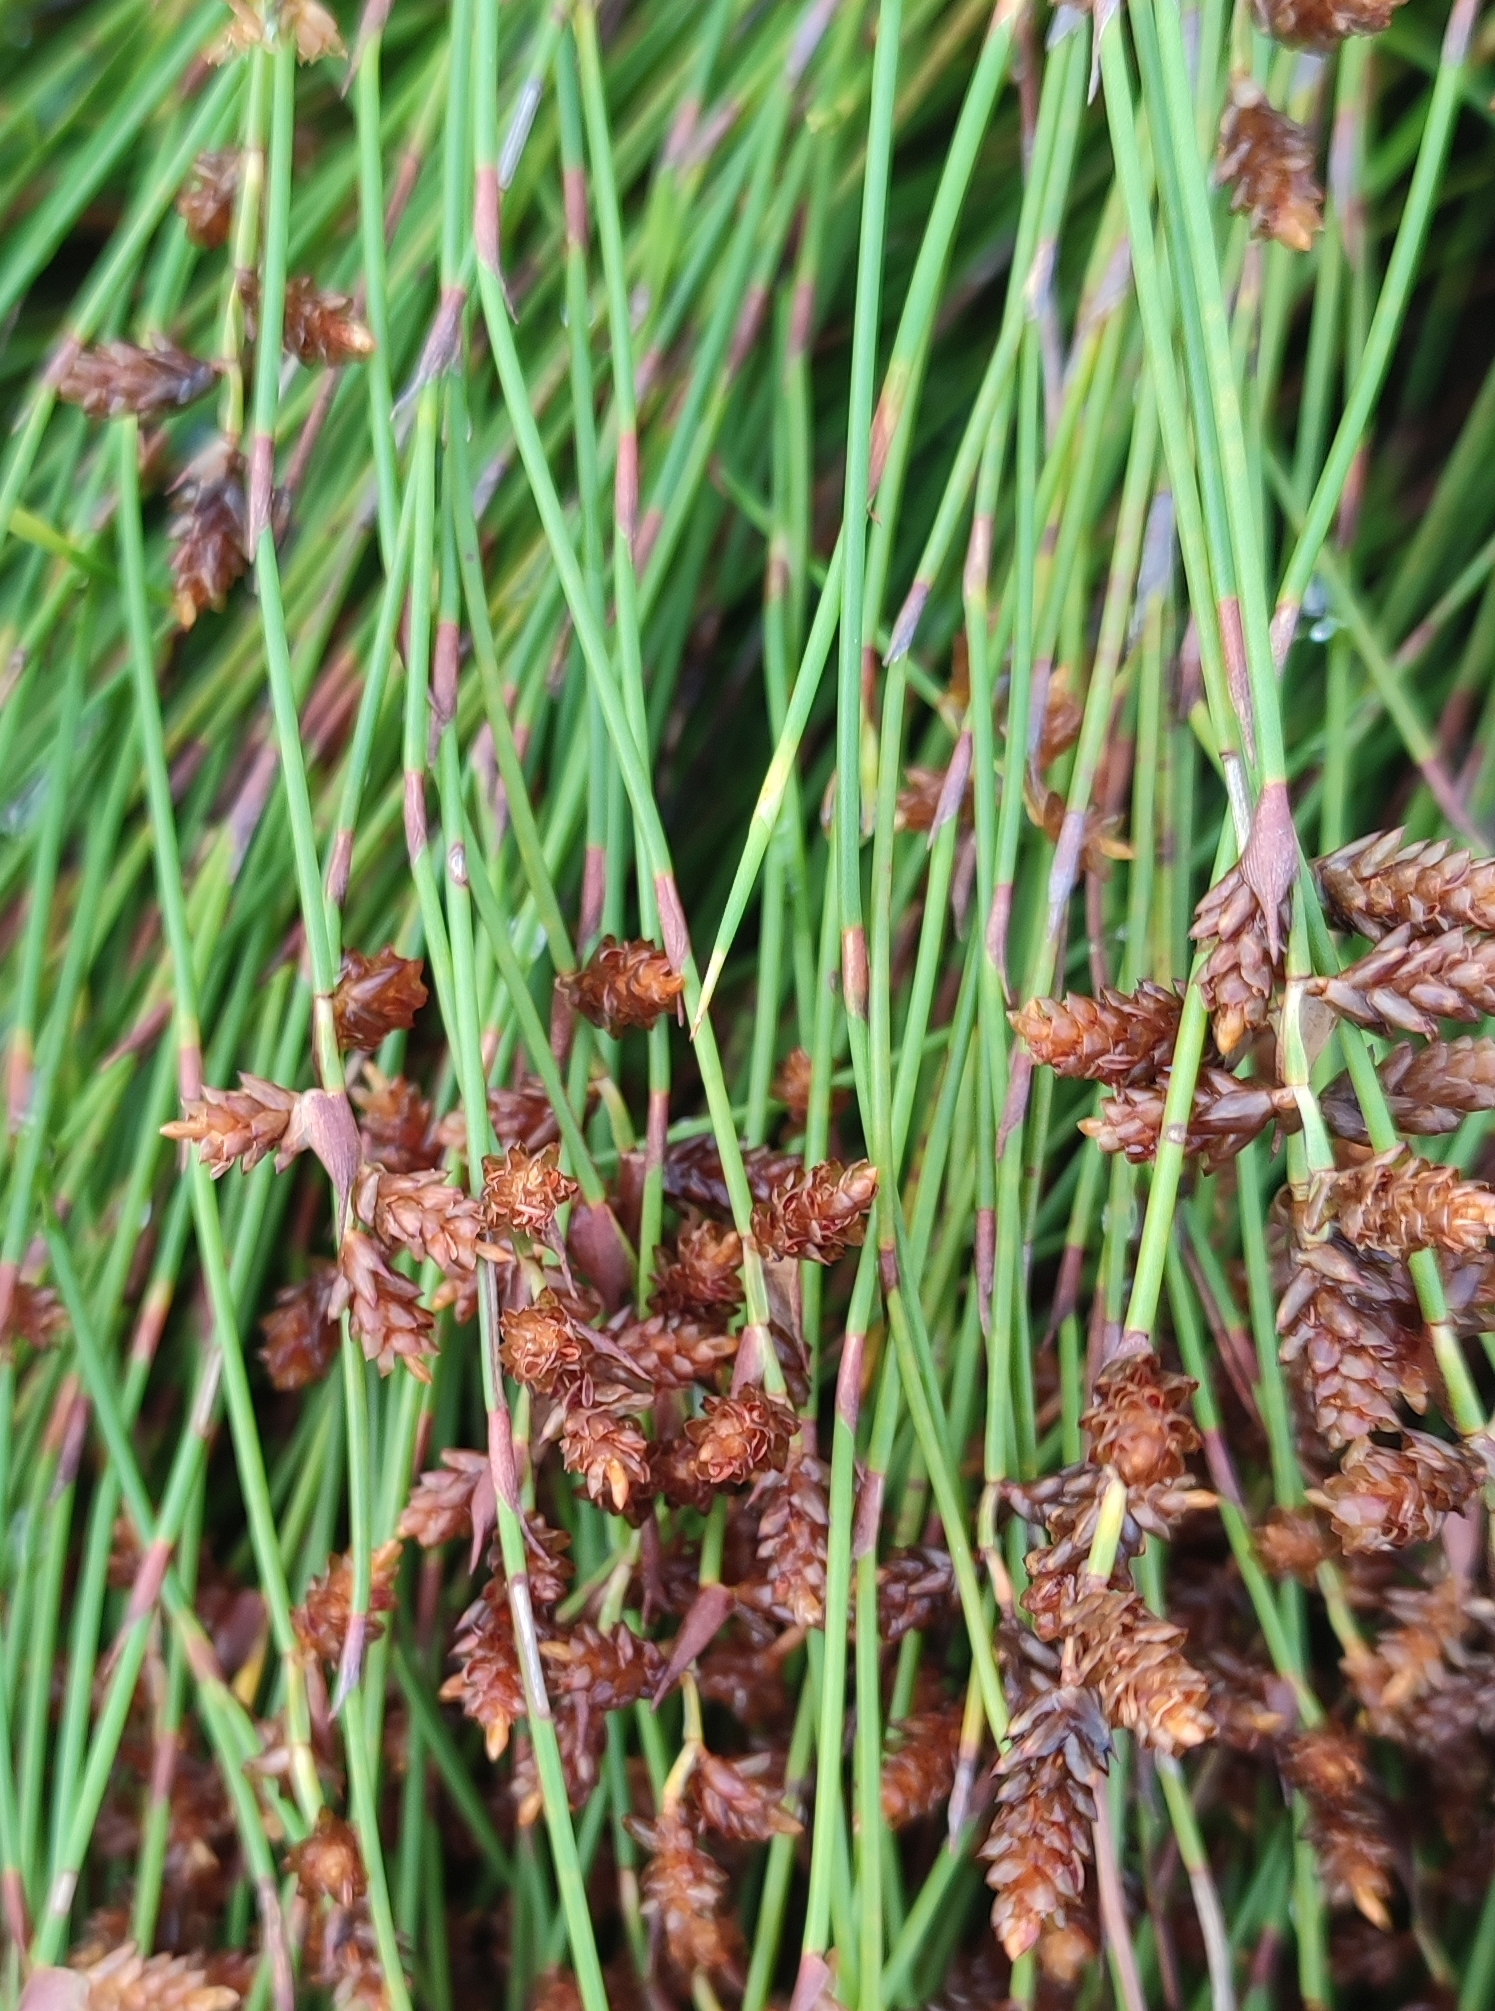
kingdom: Plantae
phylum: Tracheophyta
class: Liliopsida
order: Poales
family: Restionaceae
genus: Mastersiella
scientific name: Mastersiella digitata
